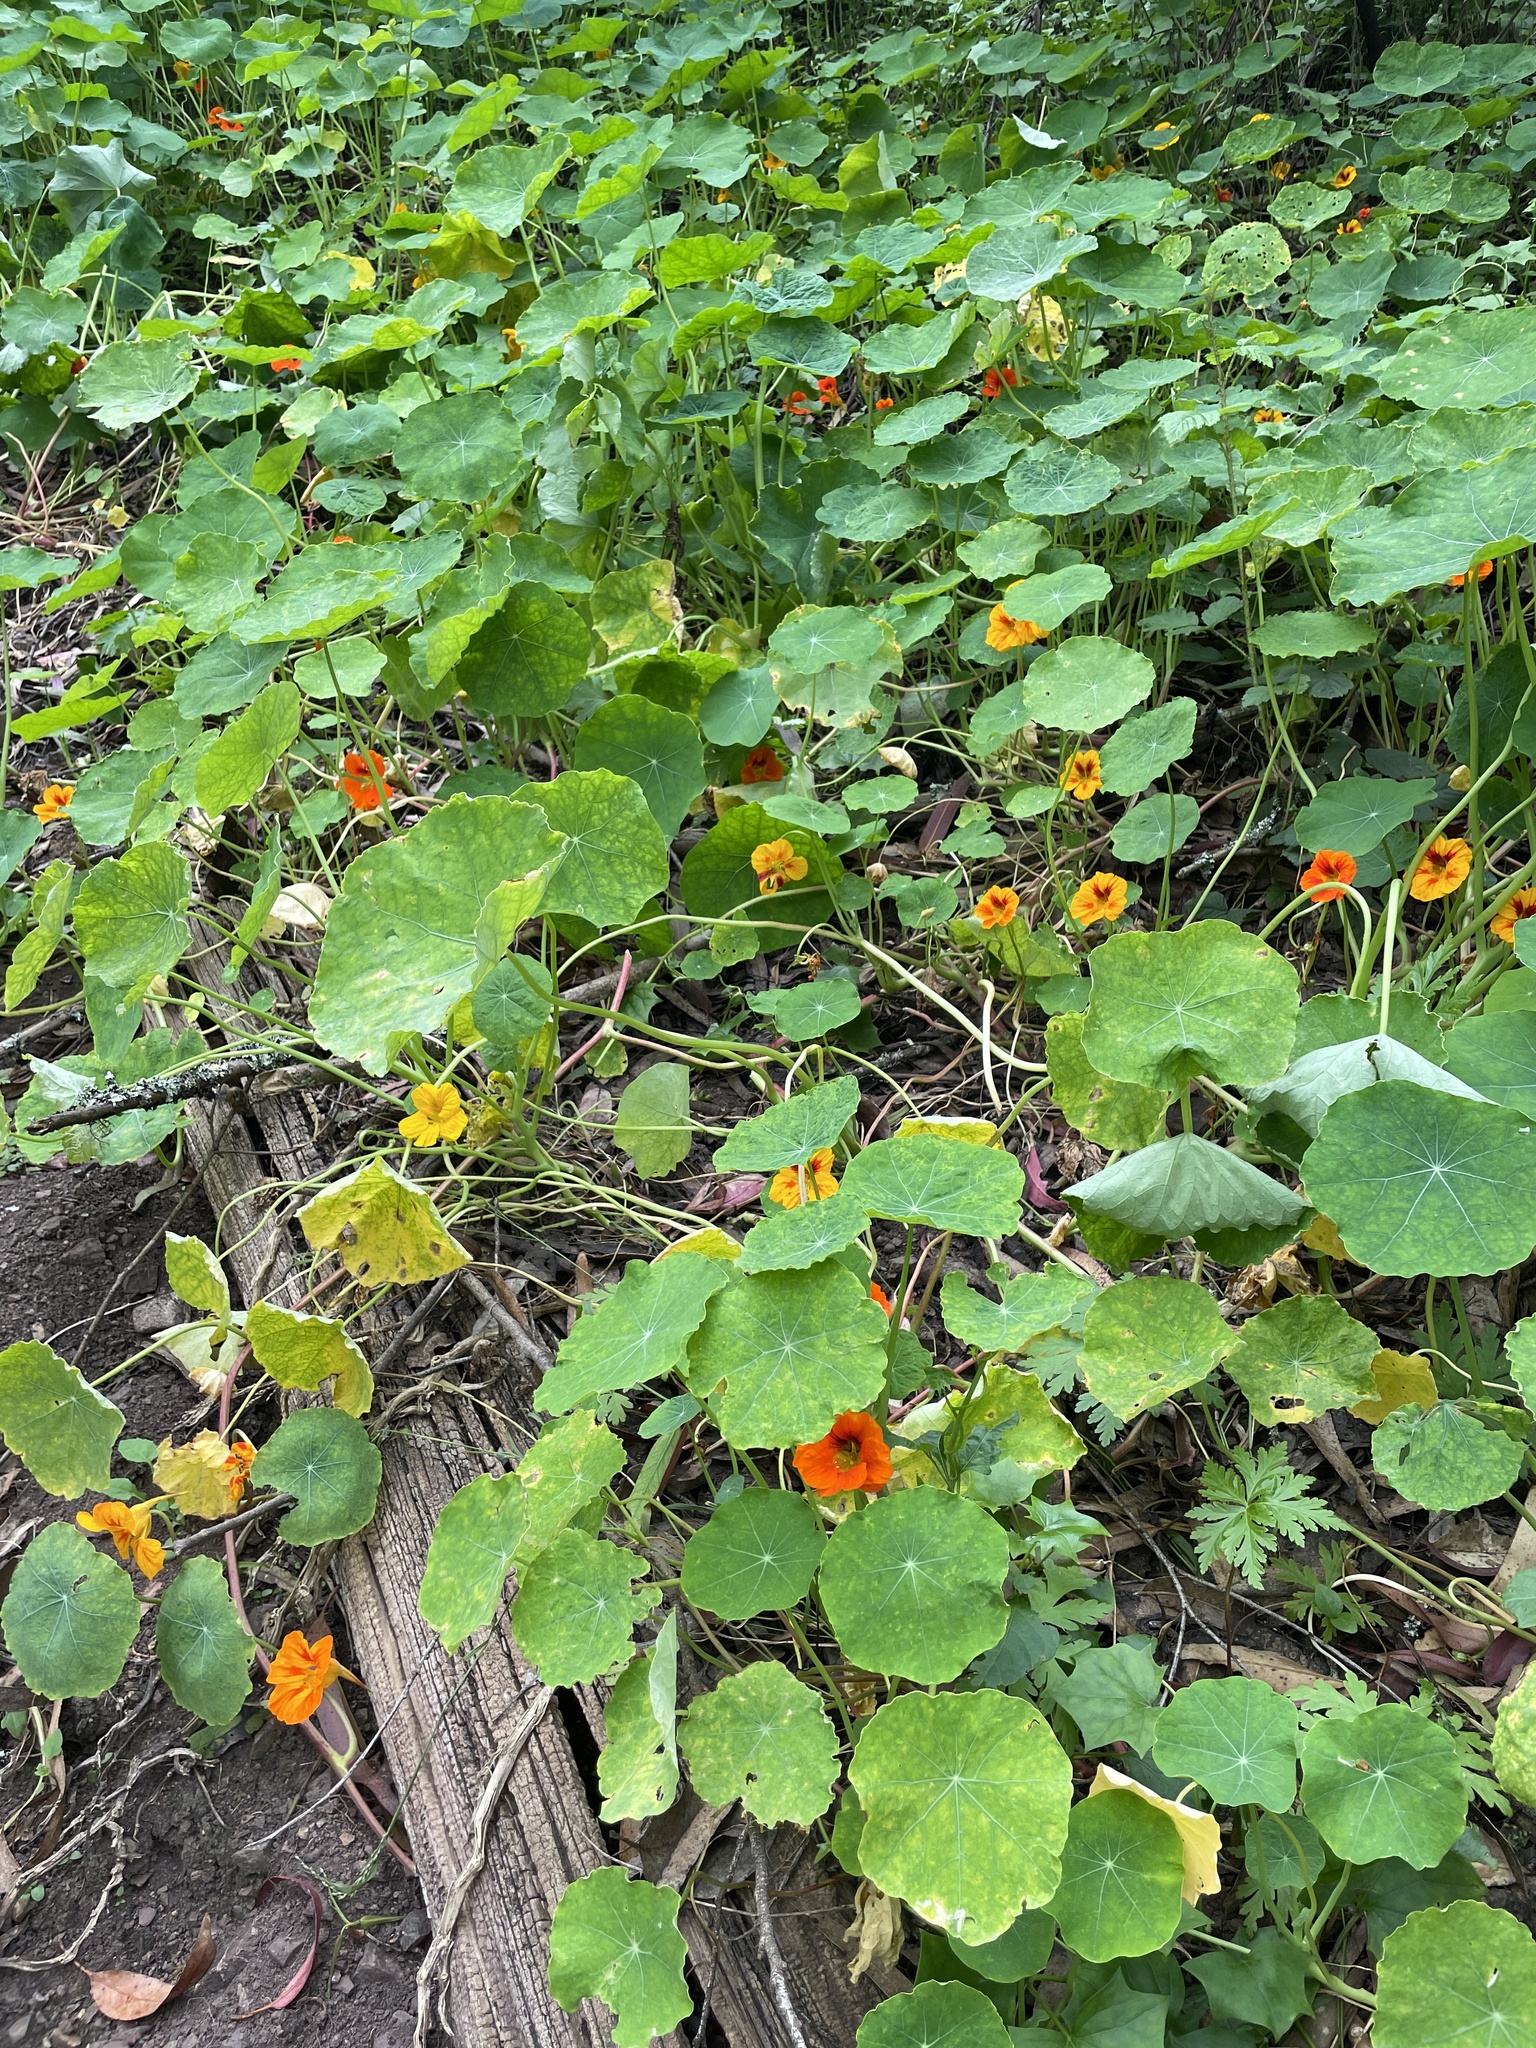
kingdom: Plantae
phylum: Tracheophyta
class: Magnoliopsida
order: Brassicales
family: Tropaeolaceae
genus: Tropaeolum
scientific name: Tropaeolum majus
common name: Nasturtium
